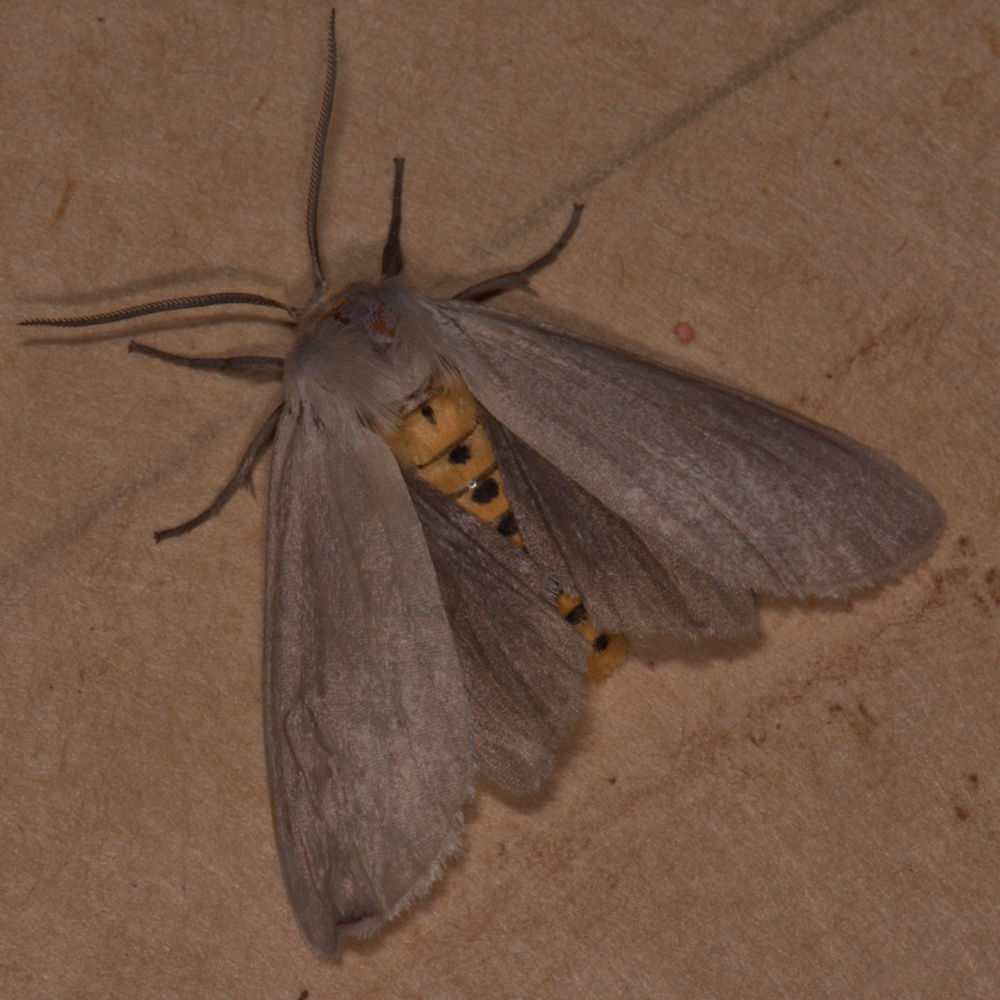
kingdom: Animalia
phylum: Arthropoda
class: Insecta
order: Lepidoptera
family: Erebidae
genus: Euchaetes
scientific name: Euchaetes egle
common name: Milkweed tussock moth
